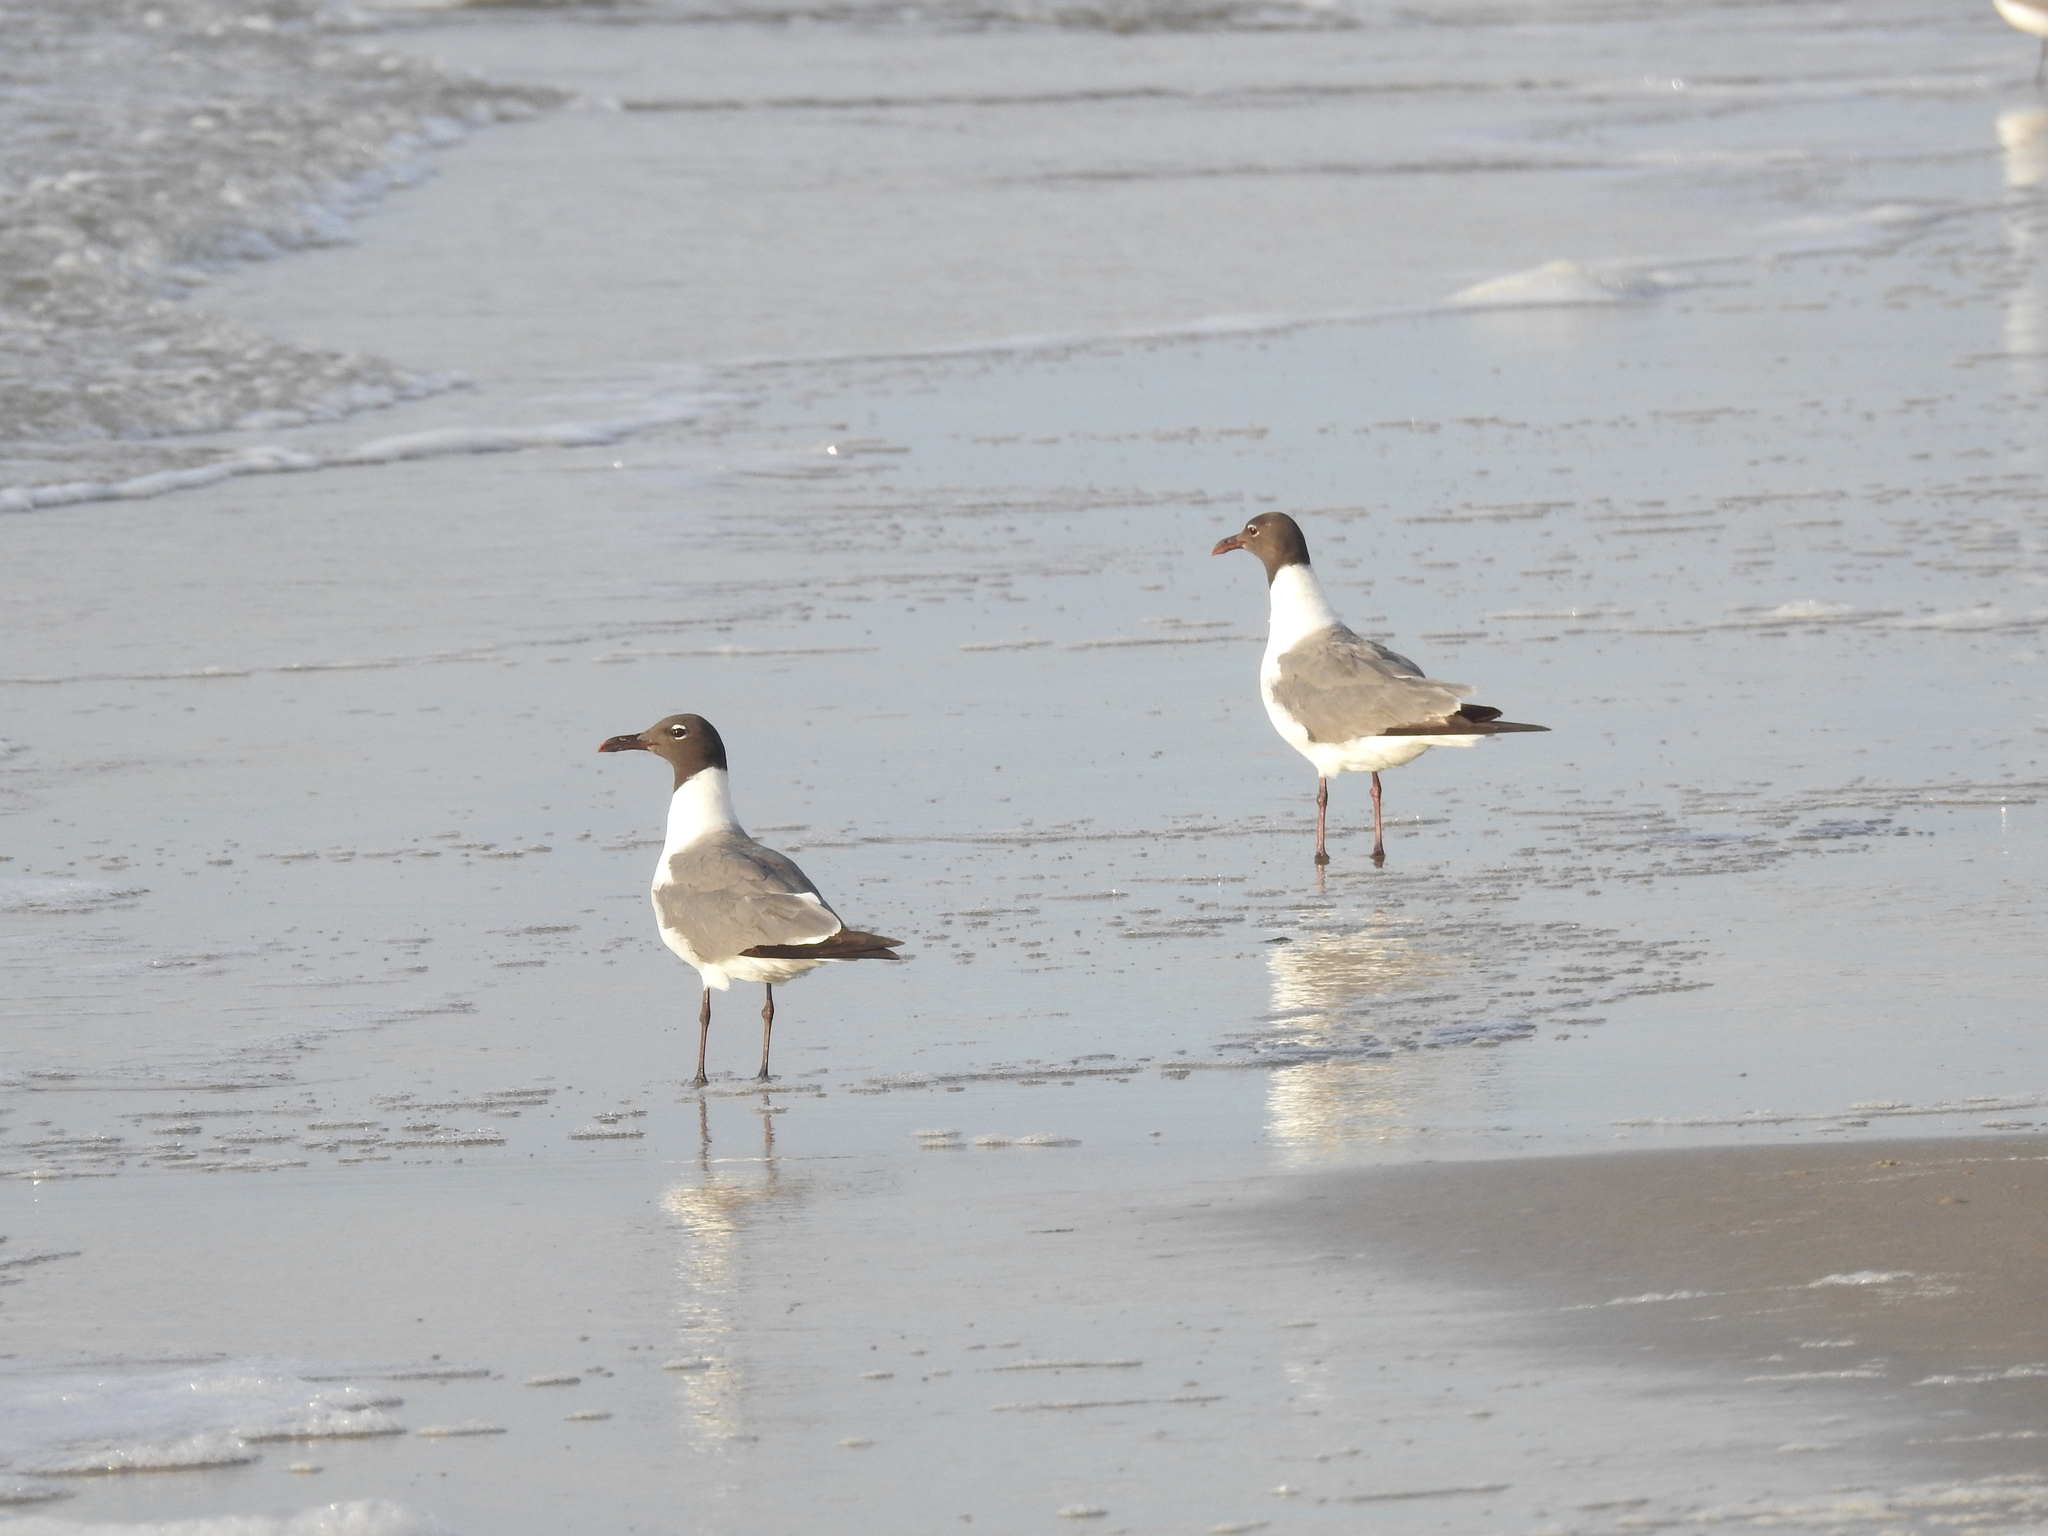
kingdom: Animalia
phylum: Chordata
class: Aves
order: Charadriiformes
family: Laridae
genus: Leucophaeus
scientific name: Leucophaeus atricilla
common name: Laughing gull
